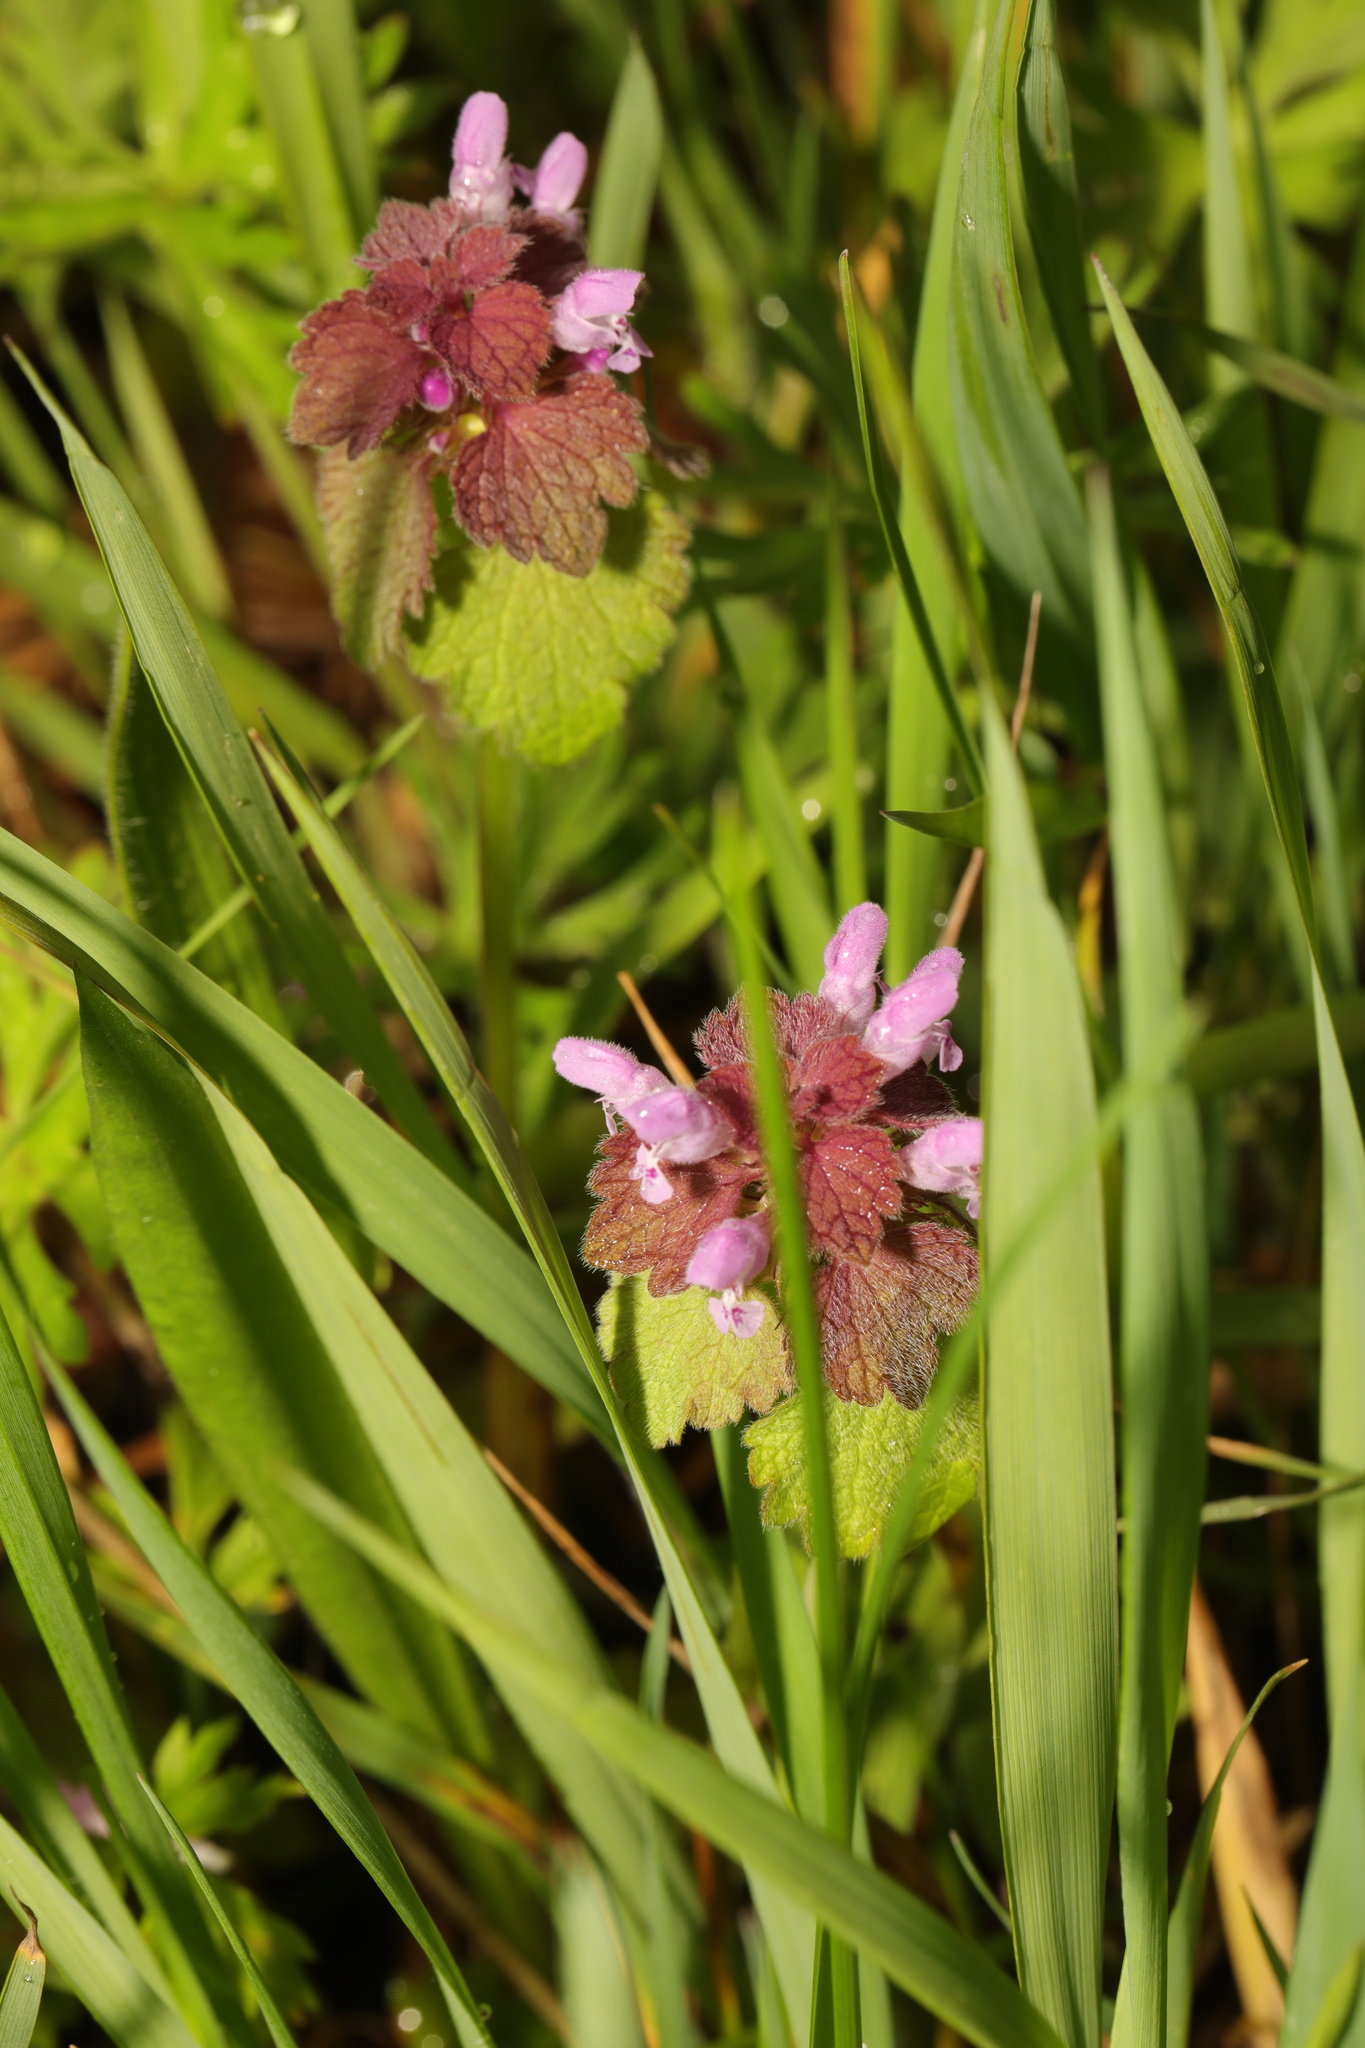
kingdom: Plantae
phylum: Tracheophyta
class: Magnoliopsida
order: Lamiales
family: Lamiaceae
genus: Lamium
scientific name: Lamium purpureum
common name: Red dead-nettle
